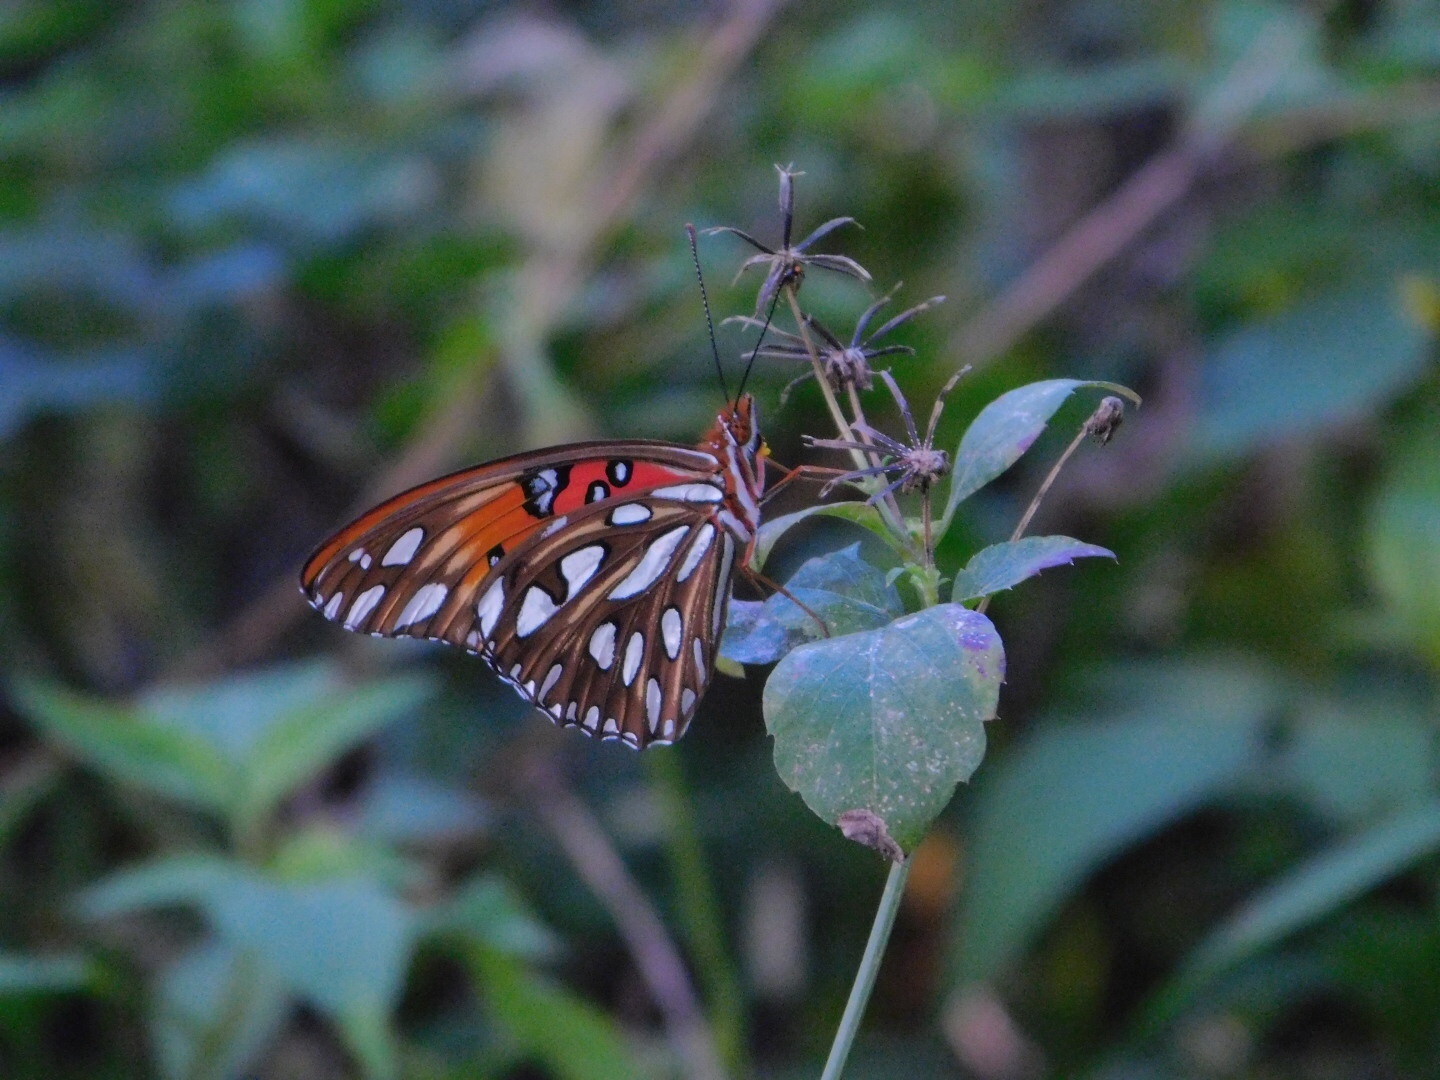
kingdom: Animalia
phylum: Arthropoda
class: Insecta
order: Lepidoptera
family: Nymphalidae
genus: Dione
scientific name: Dione vanillae
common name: Gulf fritillary
